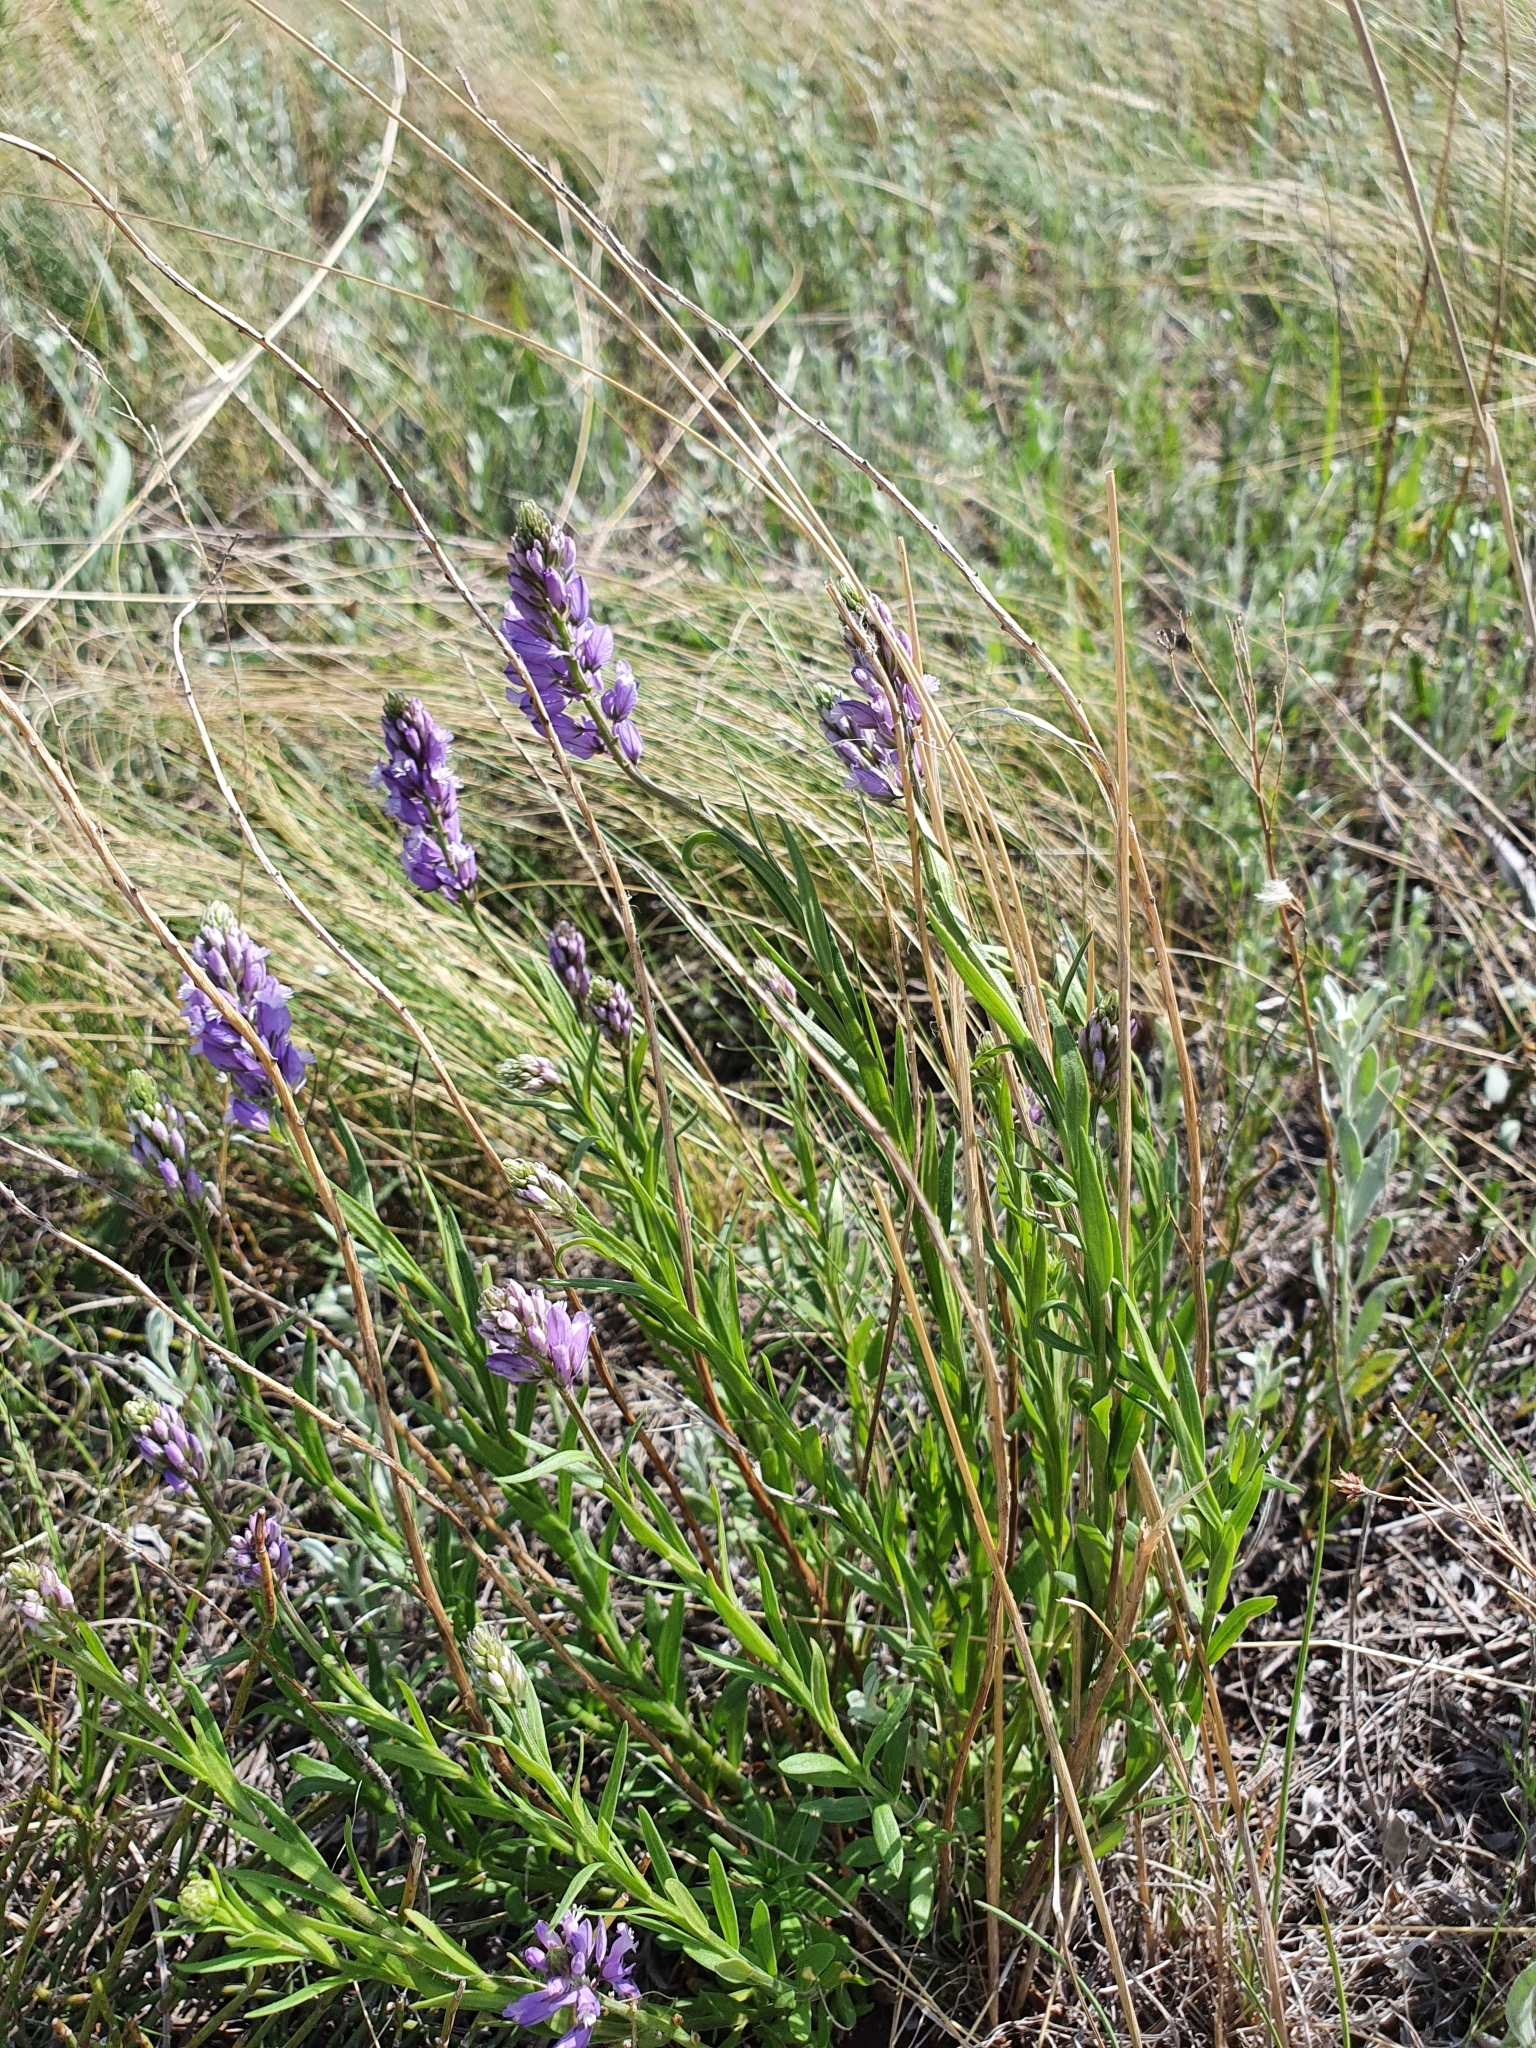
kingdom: Plantae
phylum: Tracheophyta
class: Magnoliopsida
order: Fabales
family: Polygalaceae
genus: Polygala
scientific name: Polygala comosa
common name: Tufted milkwort
